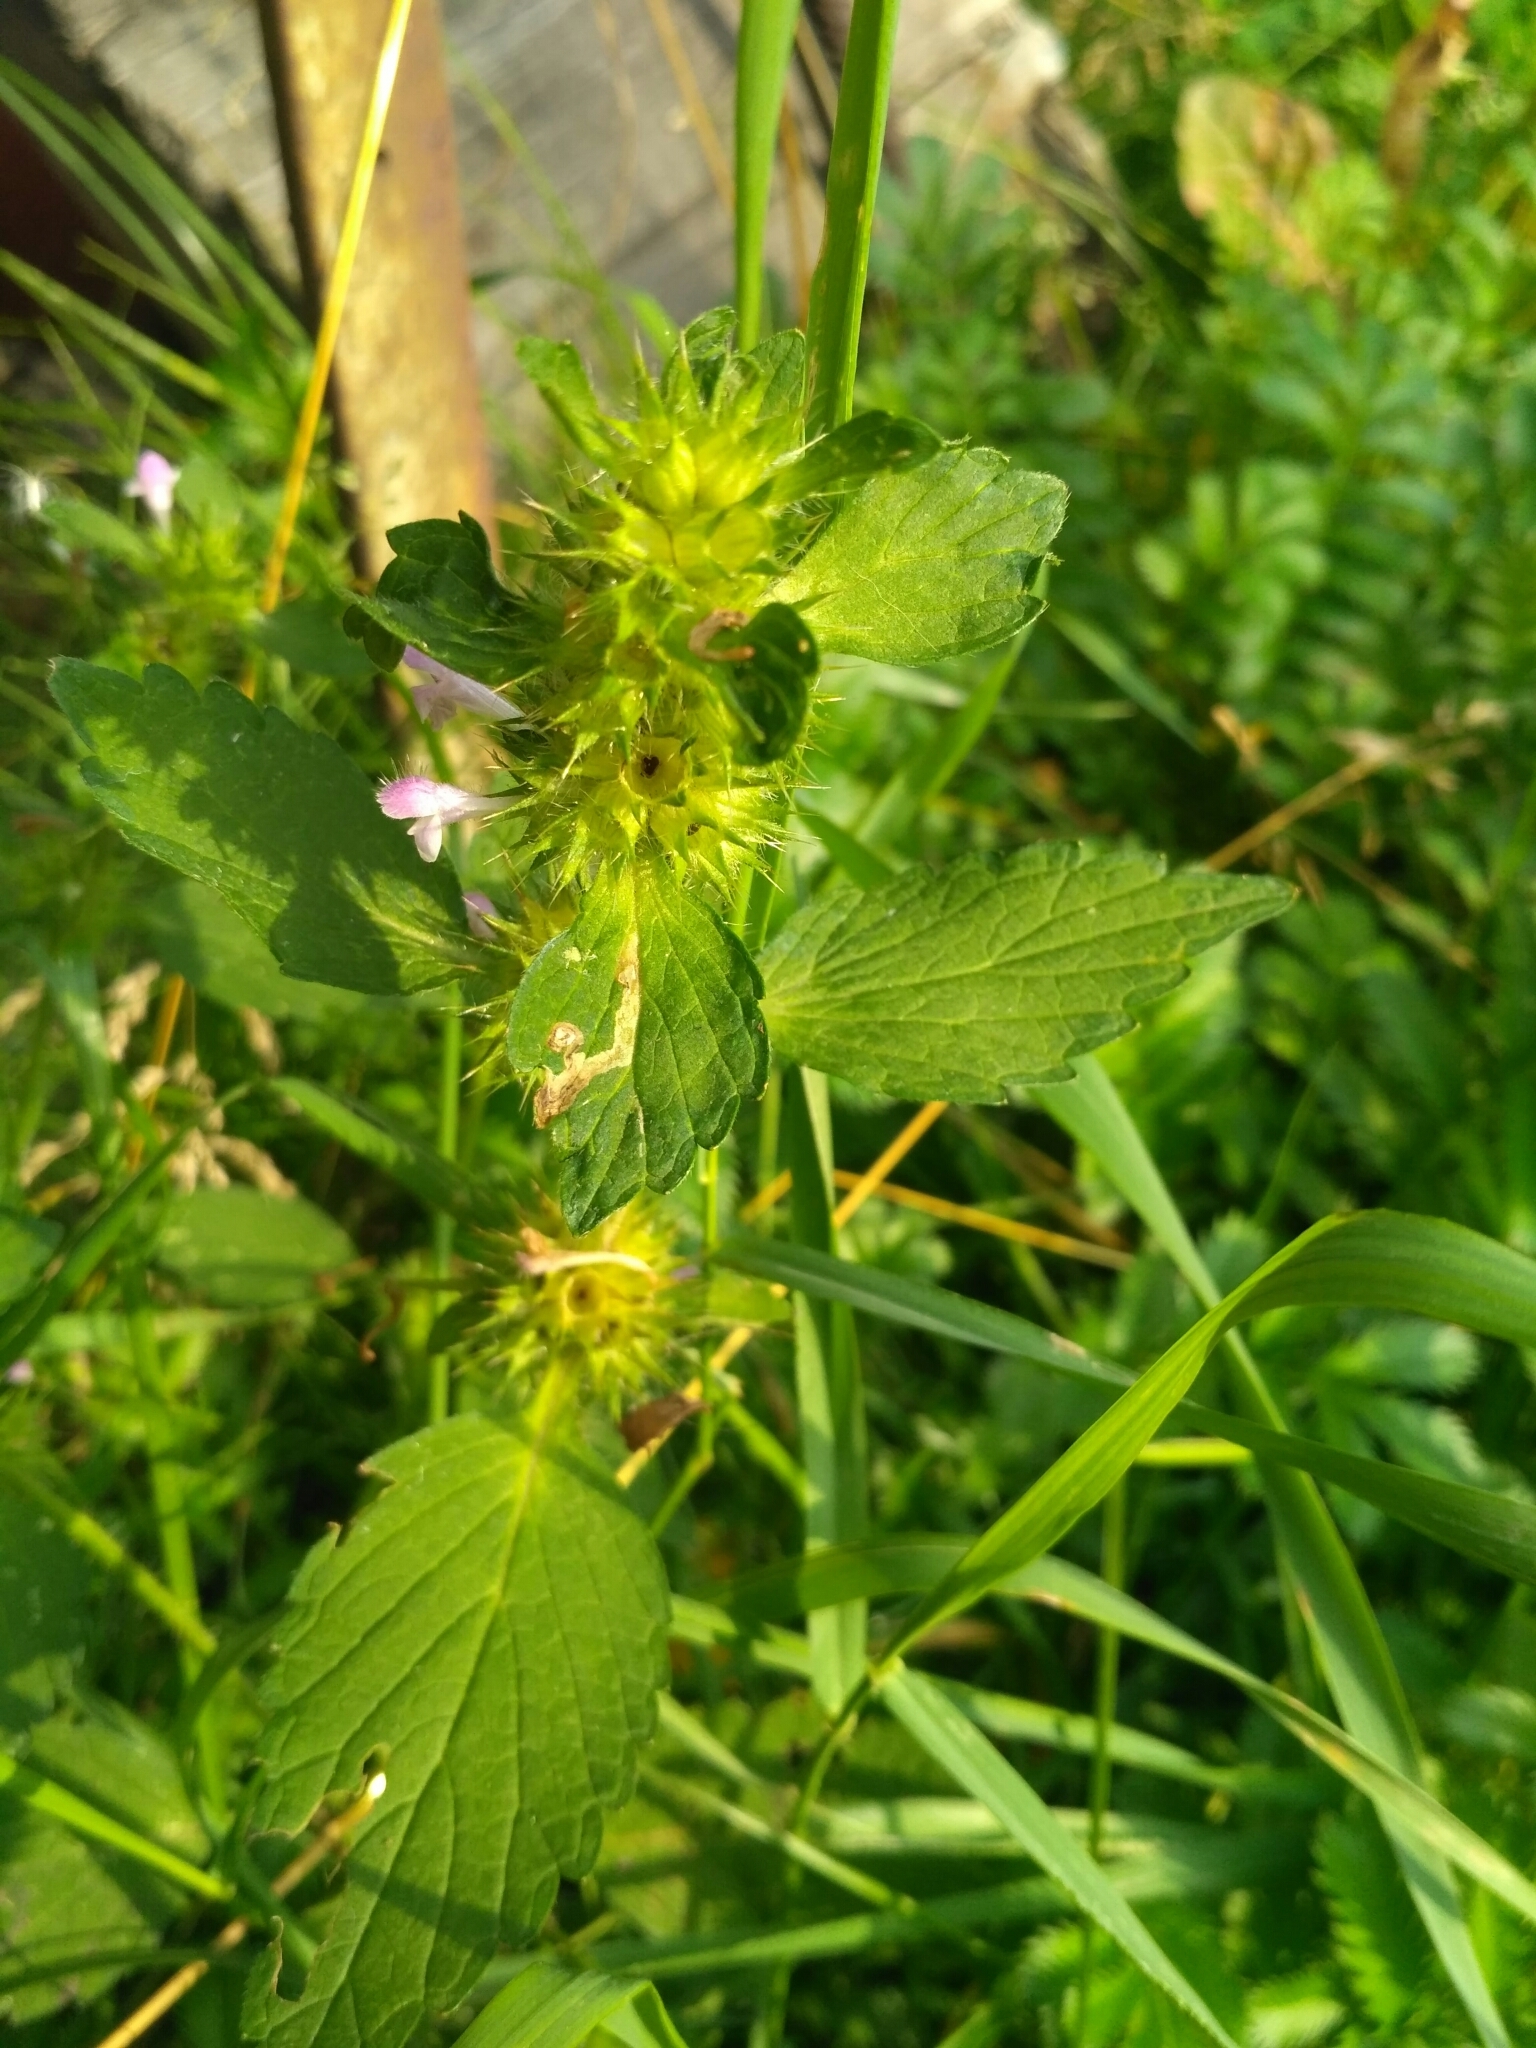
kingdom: Plantae
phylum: Tracheophyta
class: Magnoliopsida
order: Lamiales
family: Lamiaceae
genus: Galeopsis
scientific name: Galeopsis bifida
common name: Bifid hemp-nettle
